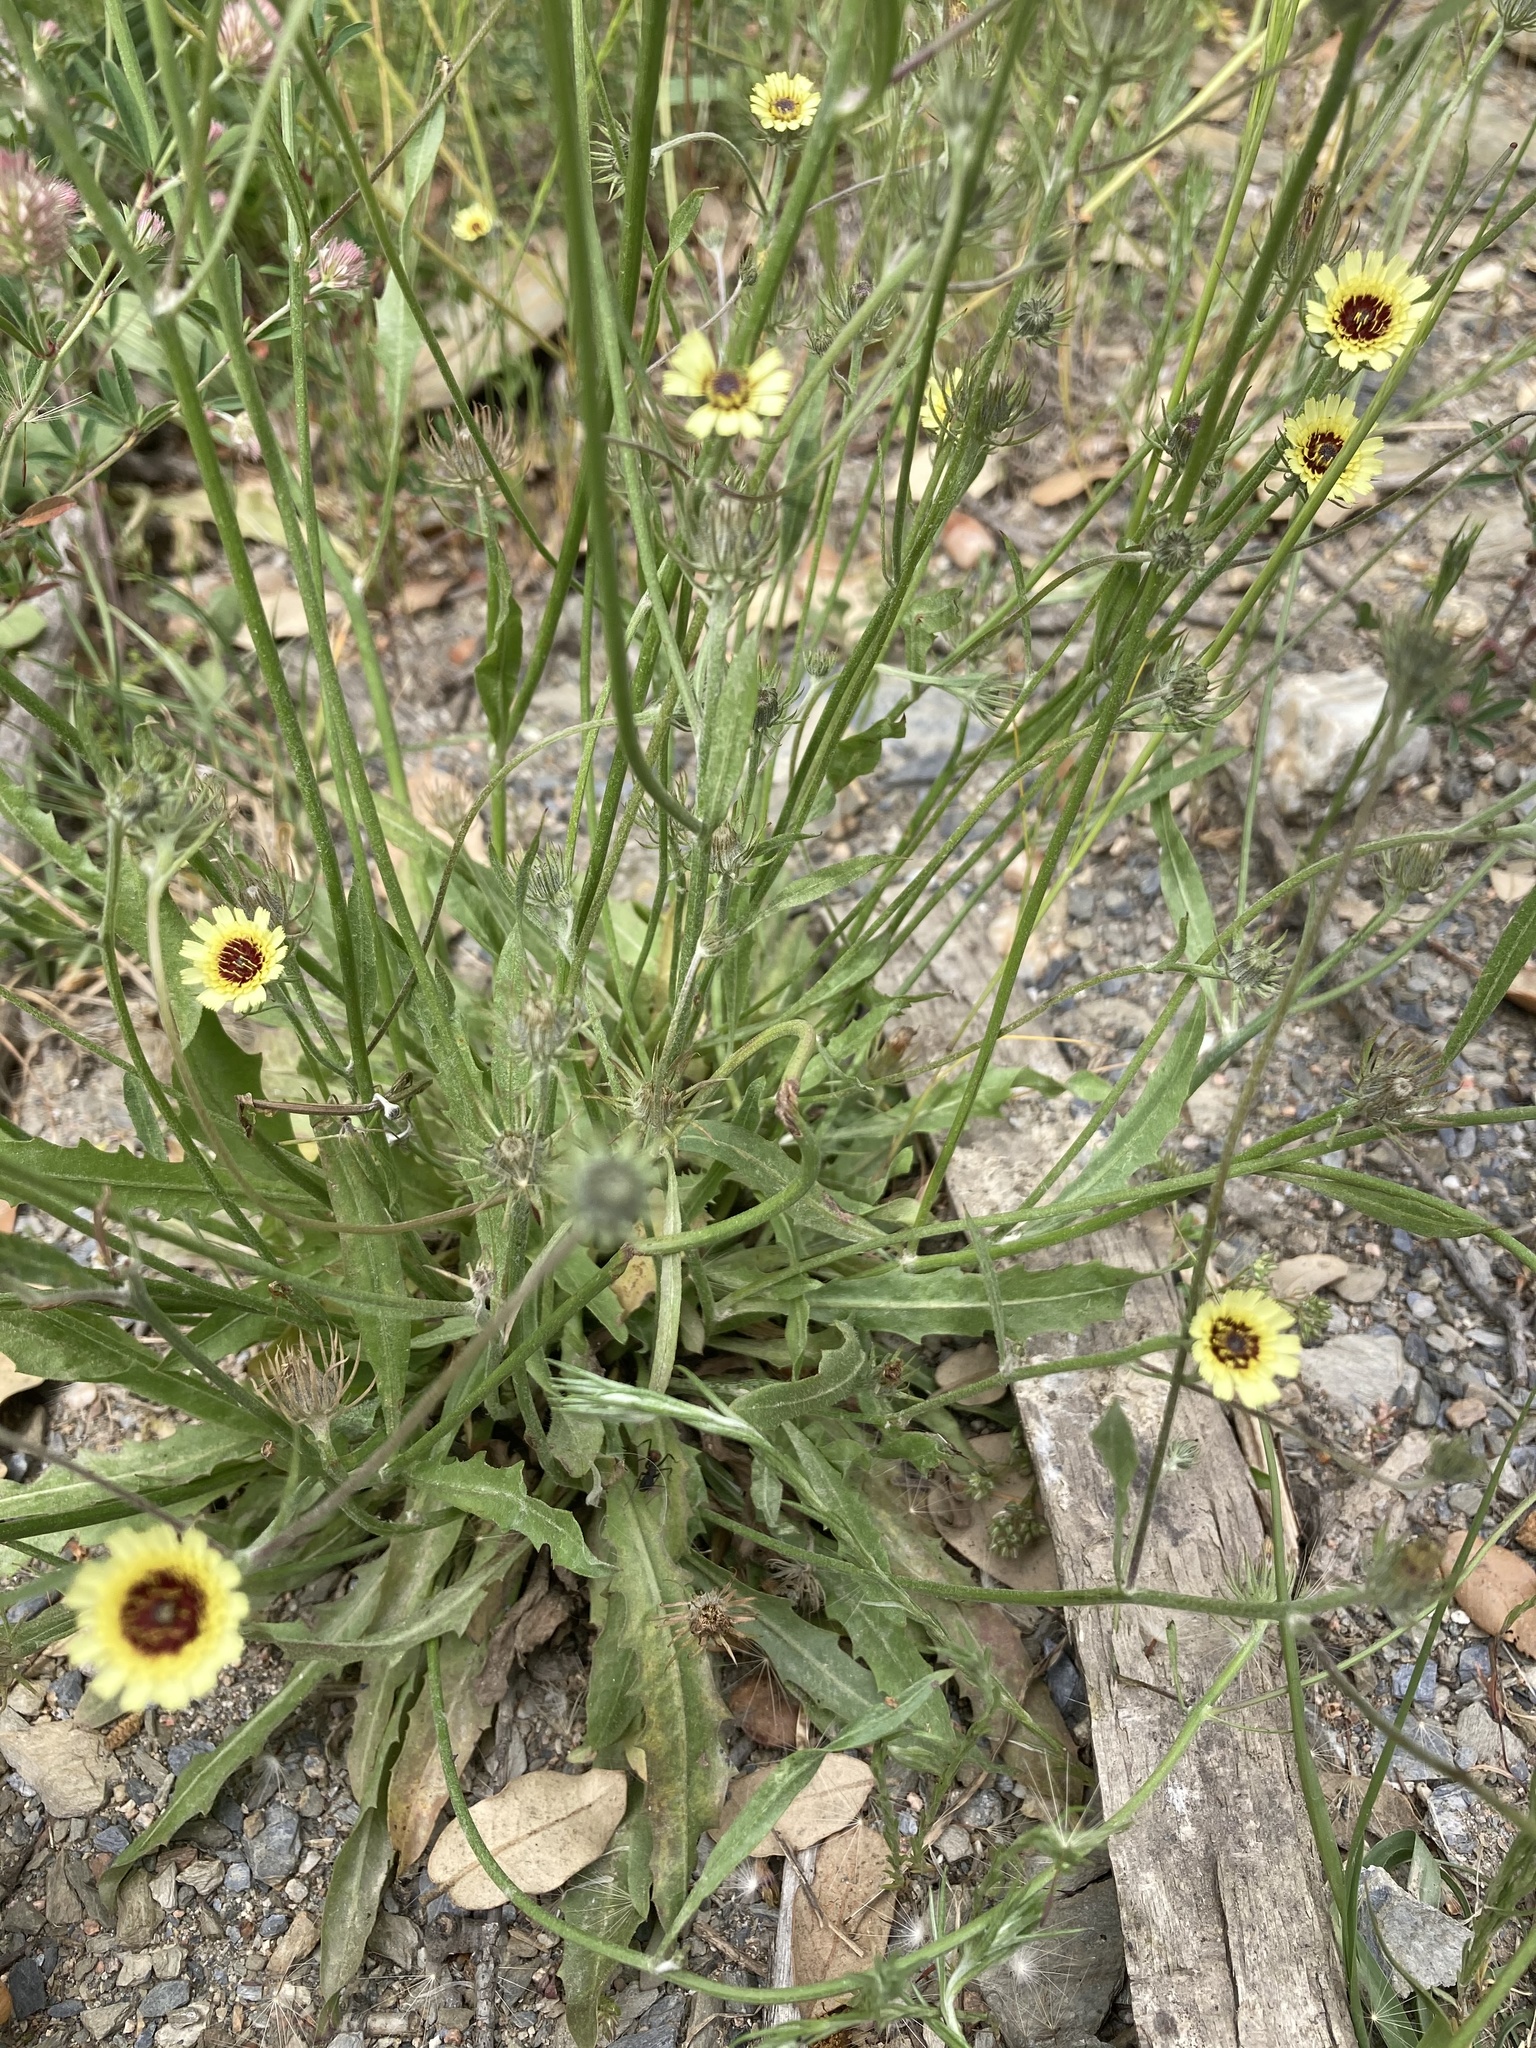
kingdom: Plantae
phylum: Tracheophyta
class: Magnoliopsida
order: Asterales
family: Asteraceae
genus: Tolpis
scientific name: Tolpis barbata
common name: Yellow hawkweed
